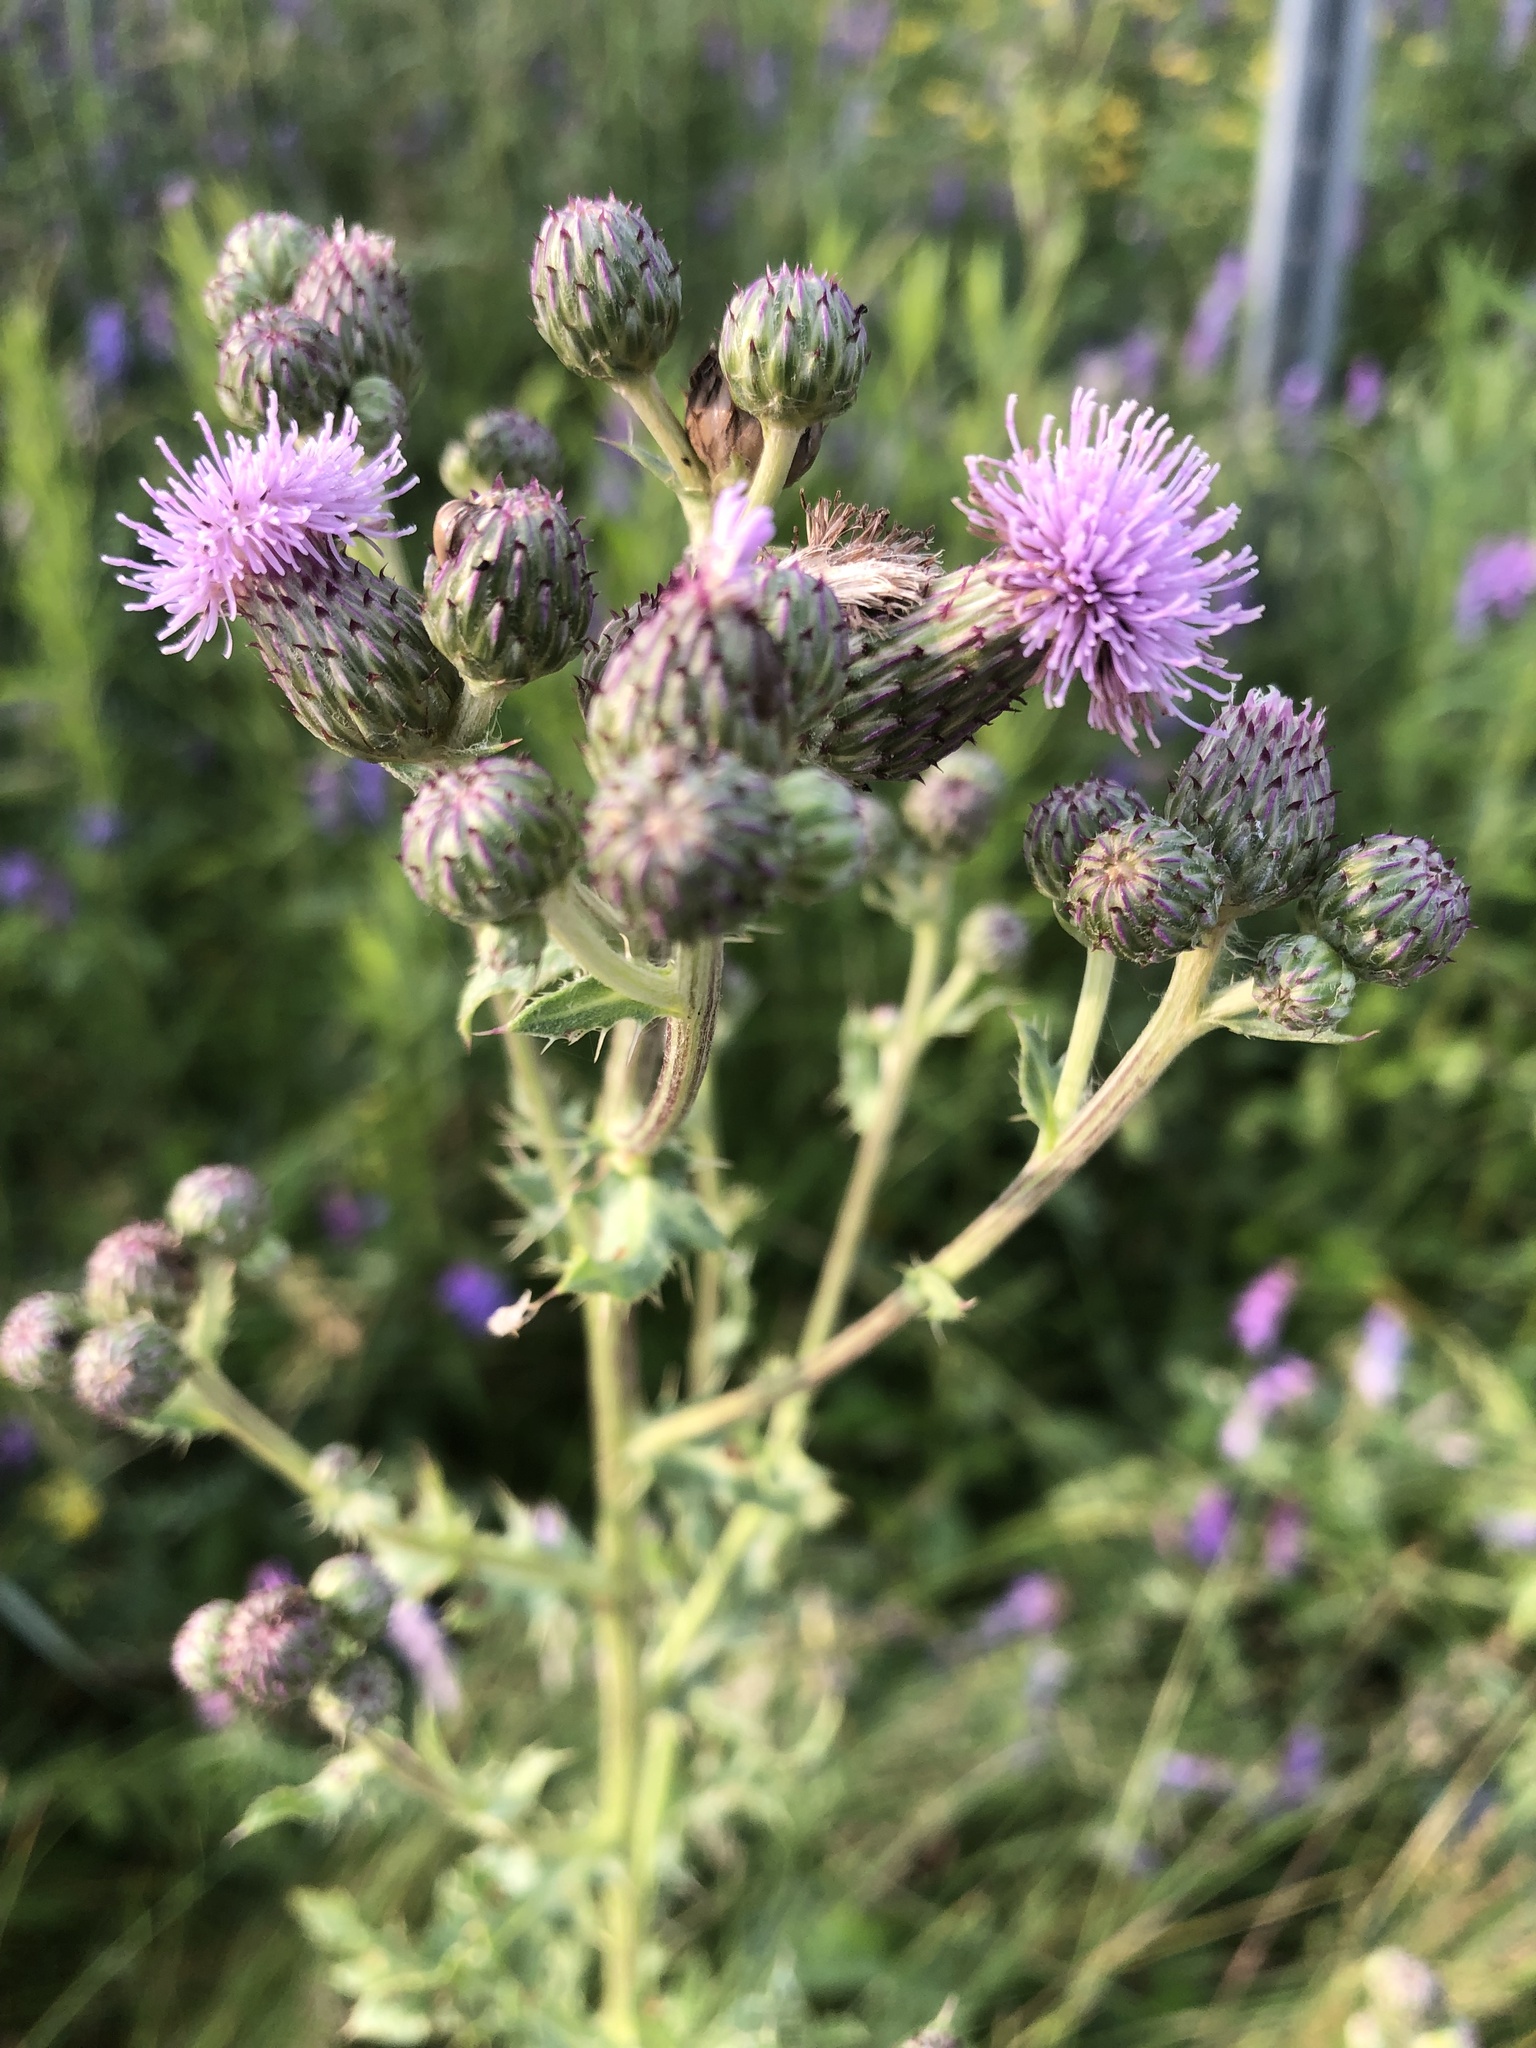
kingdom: Plantae
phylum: Tracheophyta
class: Magnoliopsida
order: Asterales
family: Asteraceae
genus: Cirsium
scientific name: Cirsium arvense
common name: Creeping thistle
